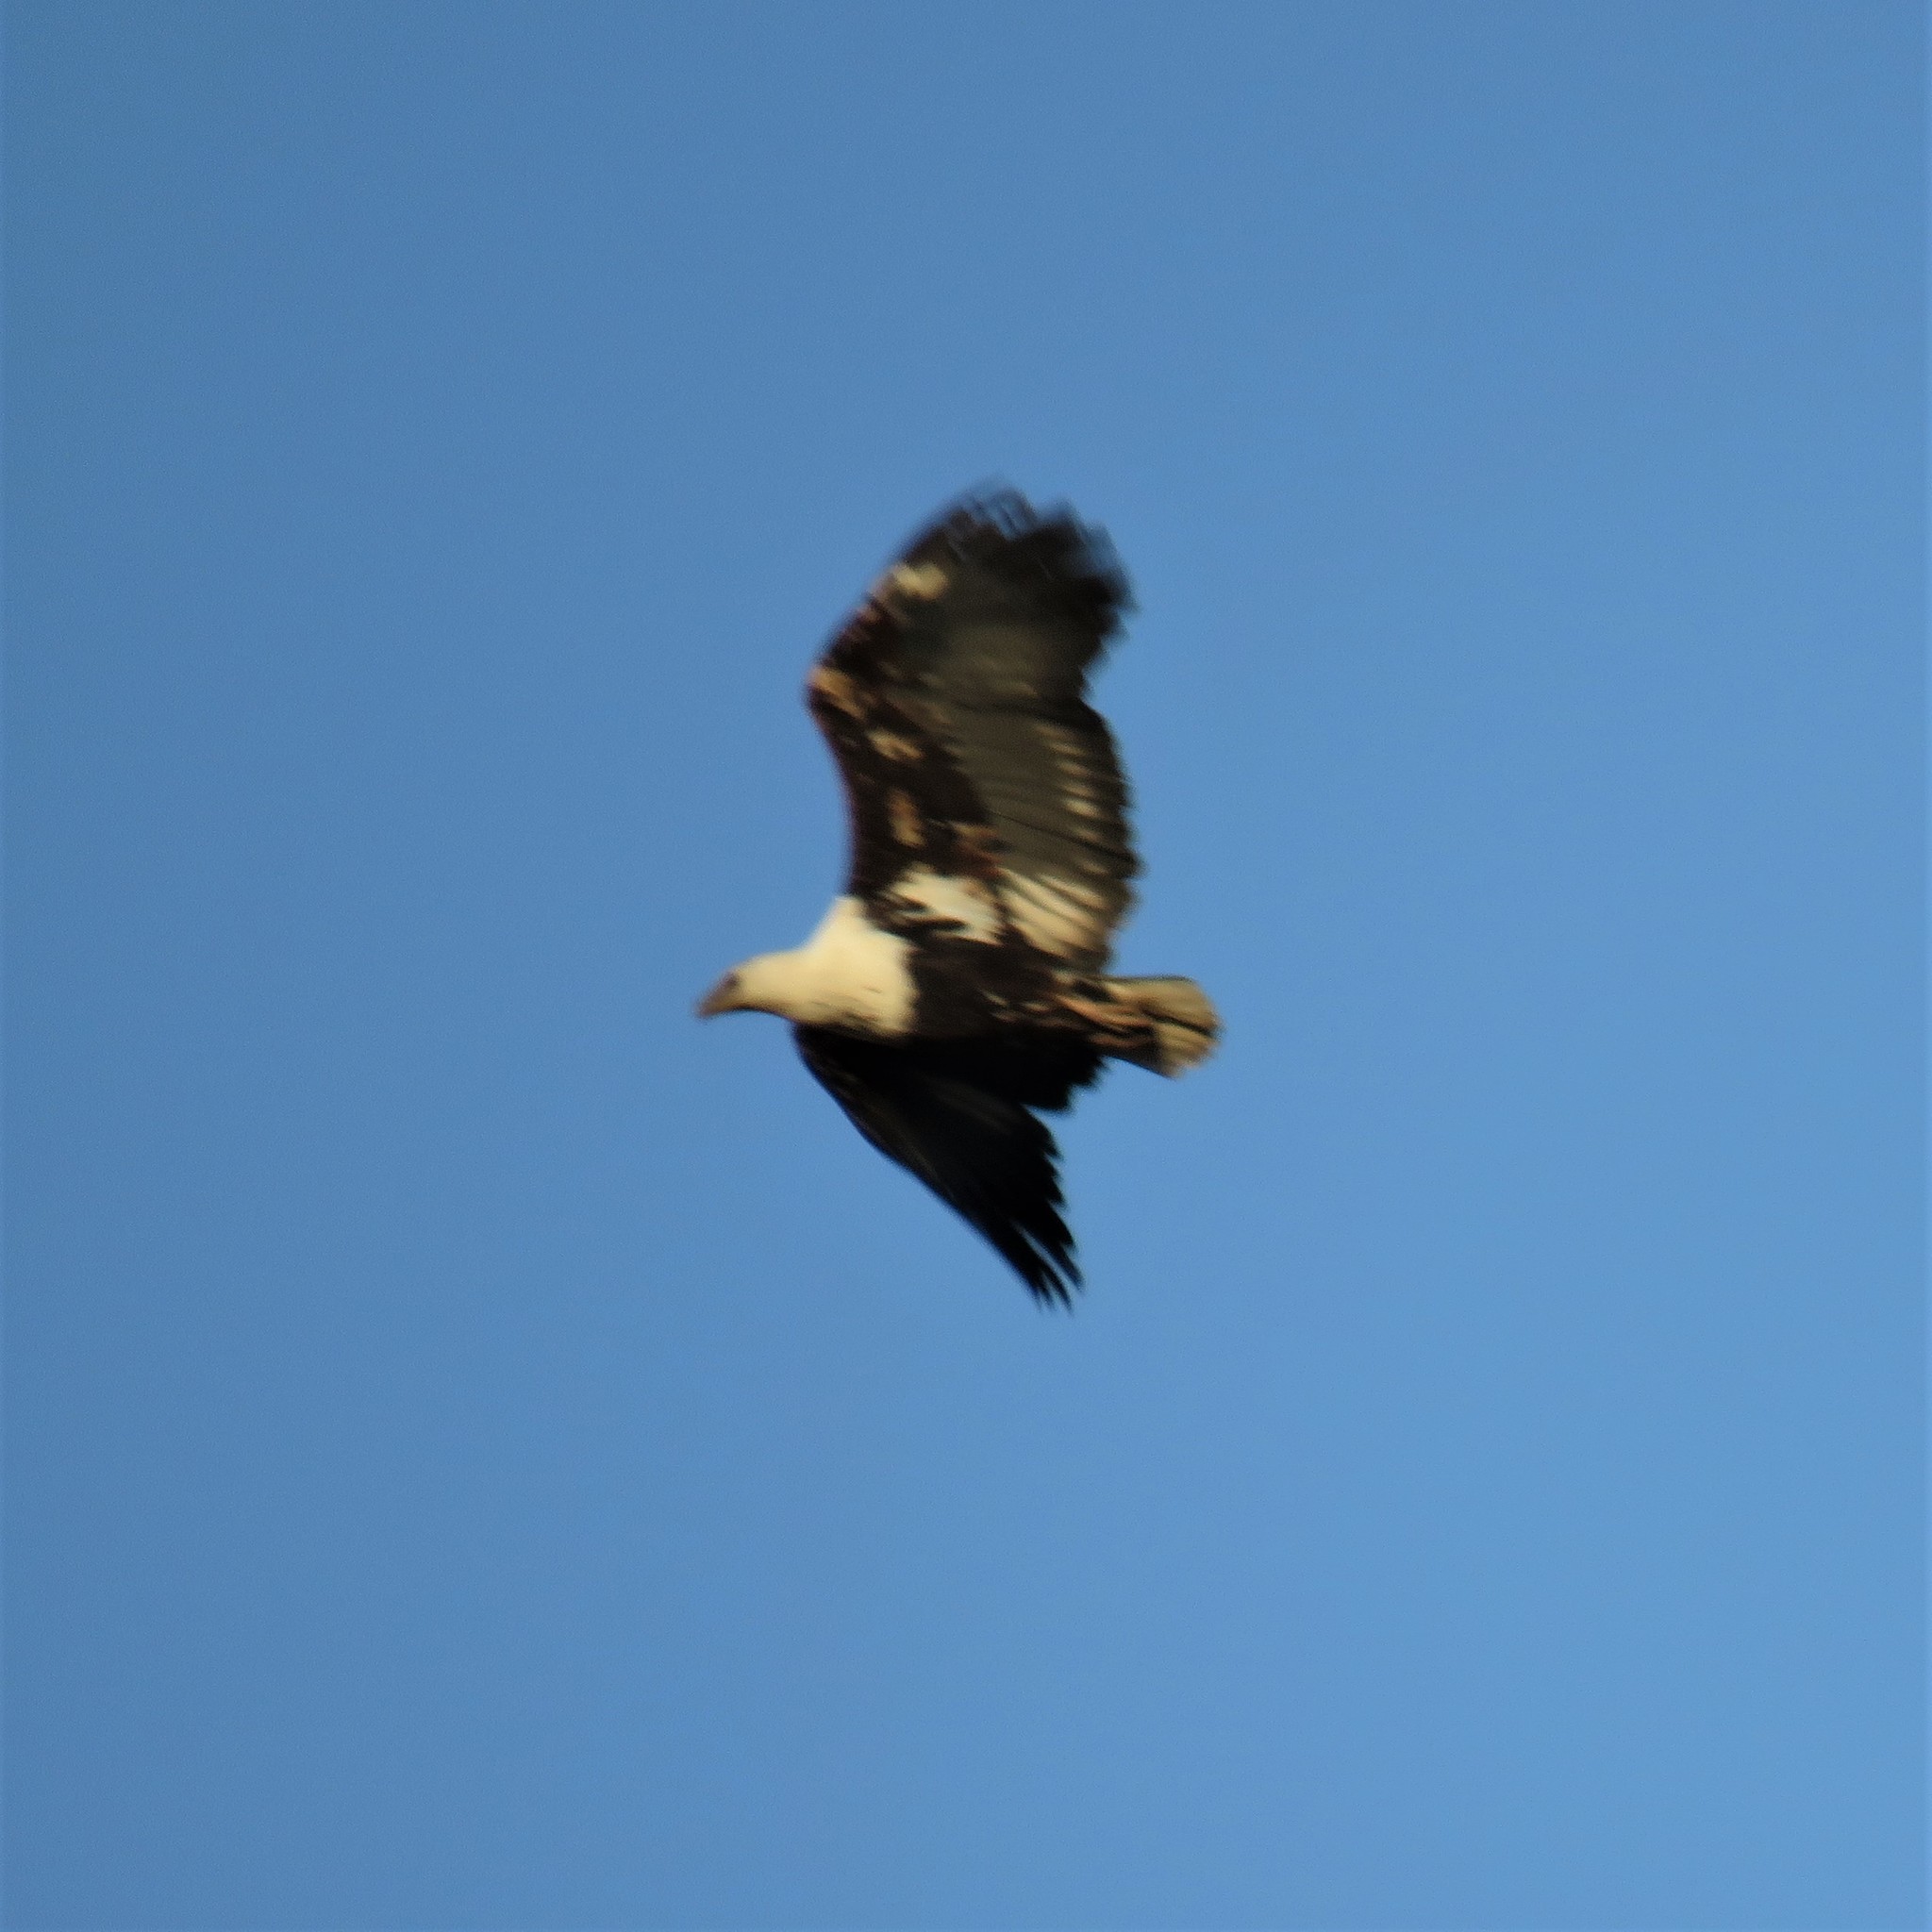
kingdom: Animalia
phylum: Chordata
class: Aves
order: Accipitriformes
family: Accipitridae
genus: Haliaeetus
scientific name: Haliaeetus vocifer
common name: African fish eagle
